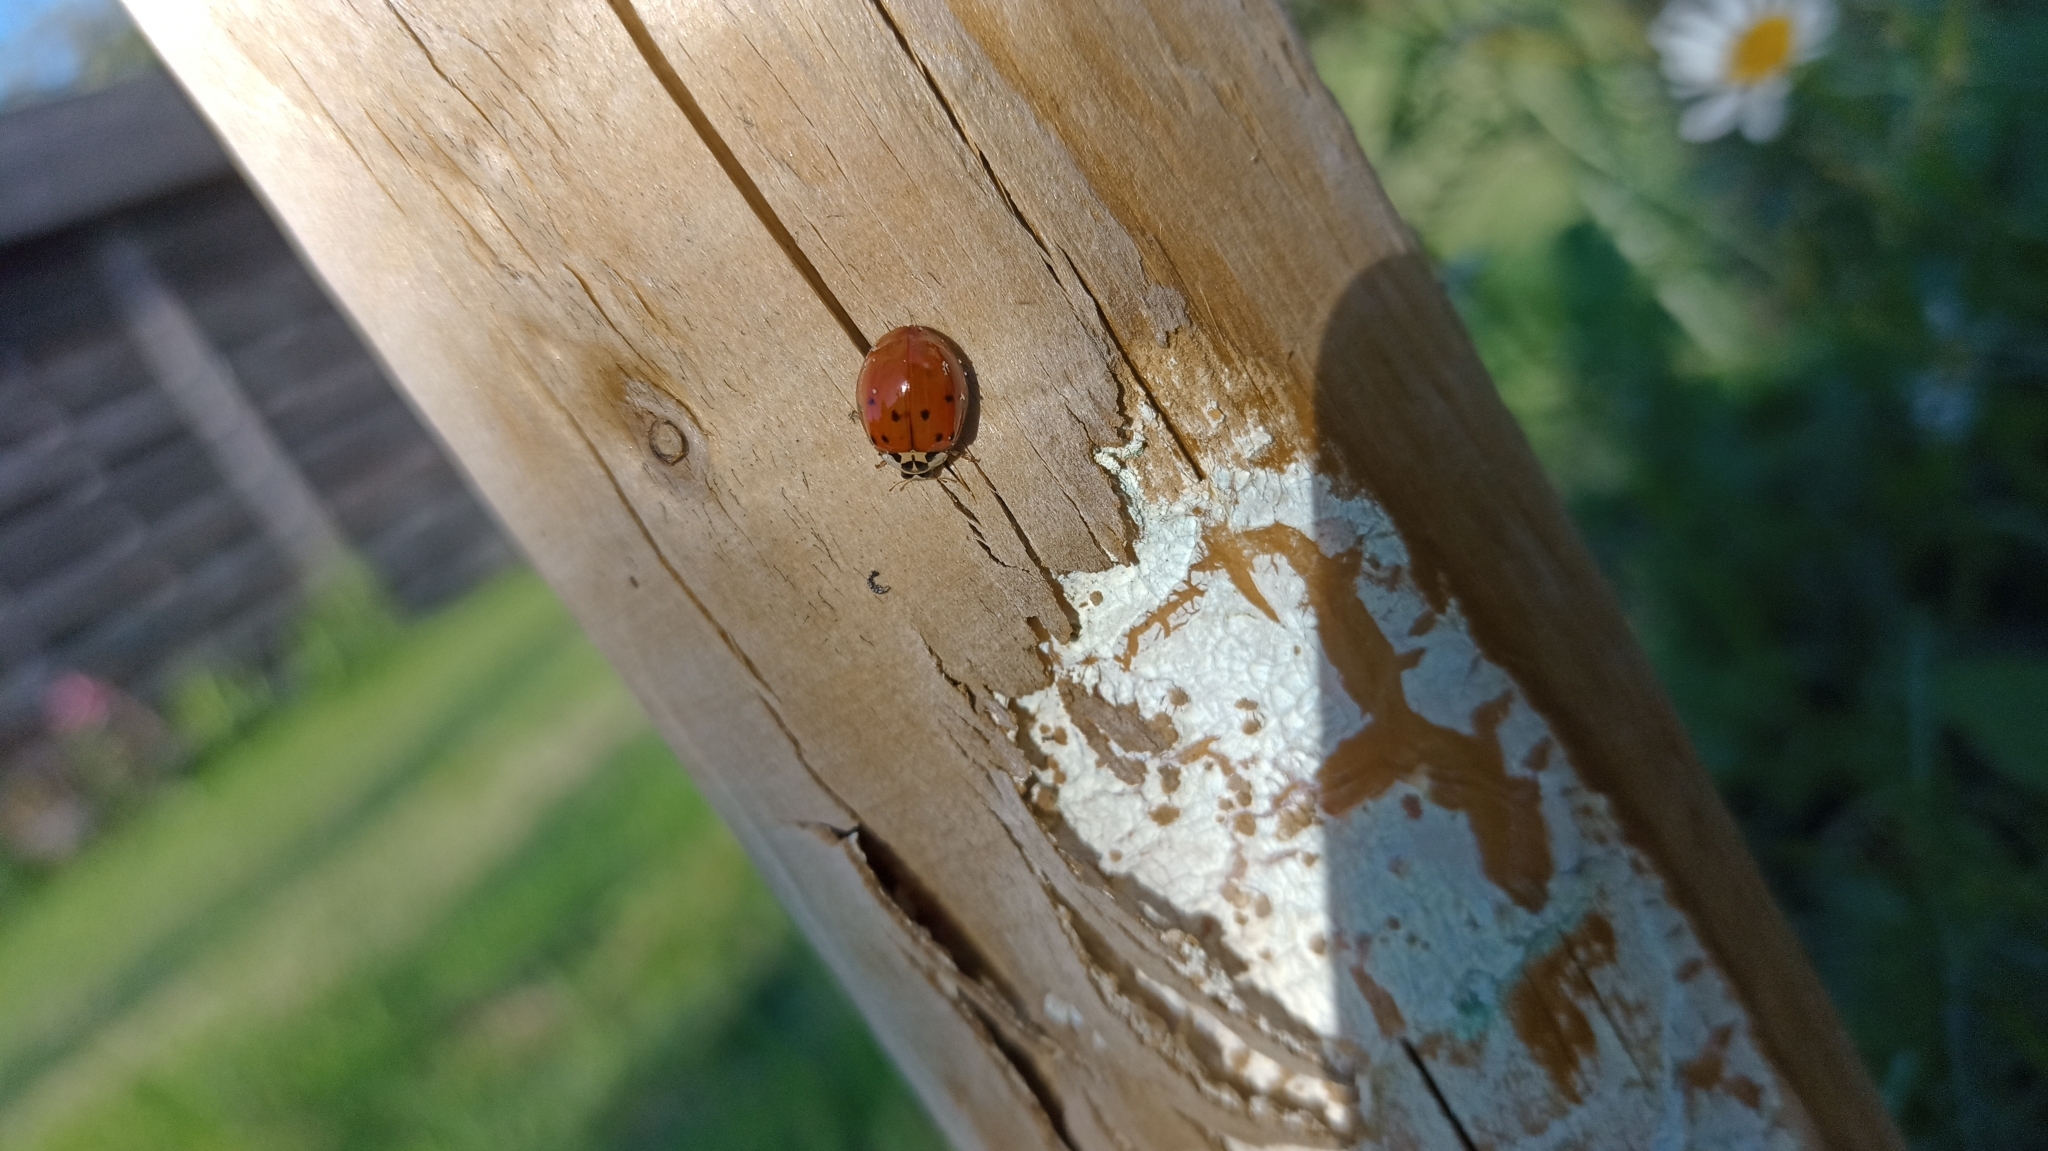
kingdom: Animalia
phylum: Arthropoda
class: Insecta
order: Coleoptera
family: Coccinellidae
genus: Harmonia
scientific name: Harmonia axyridis
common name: Harlequin ladybird
